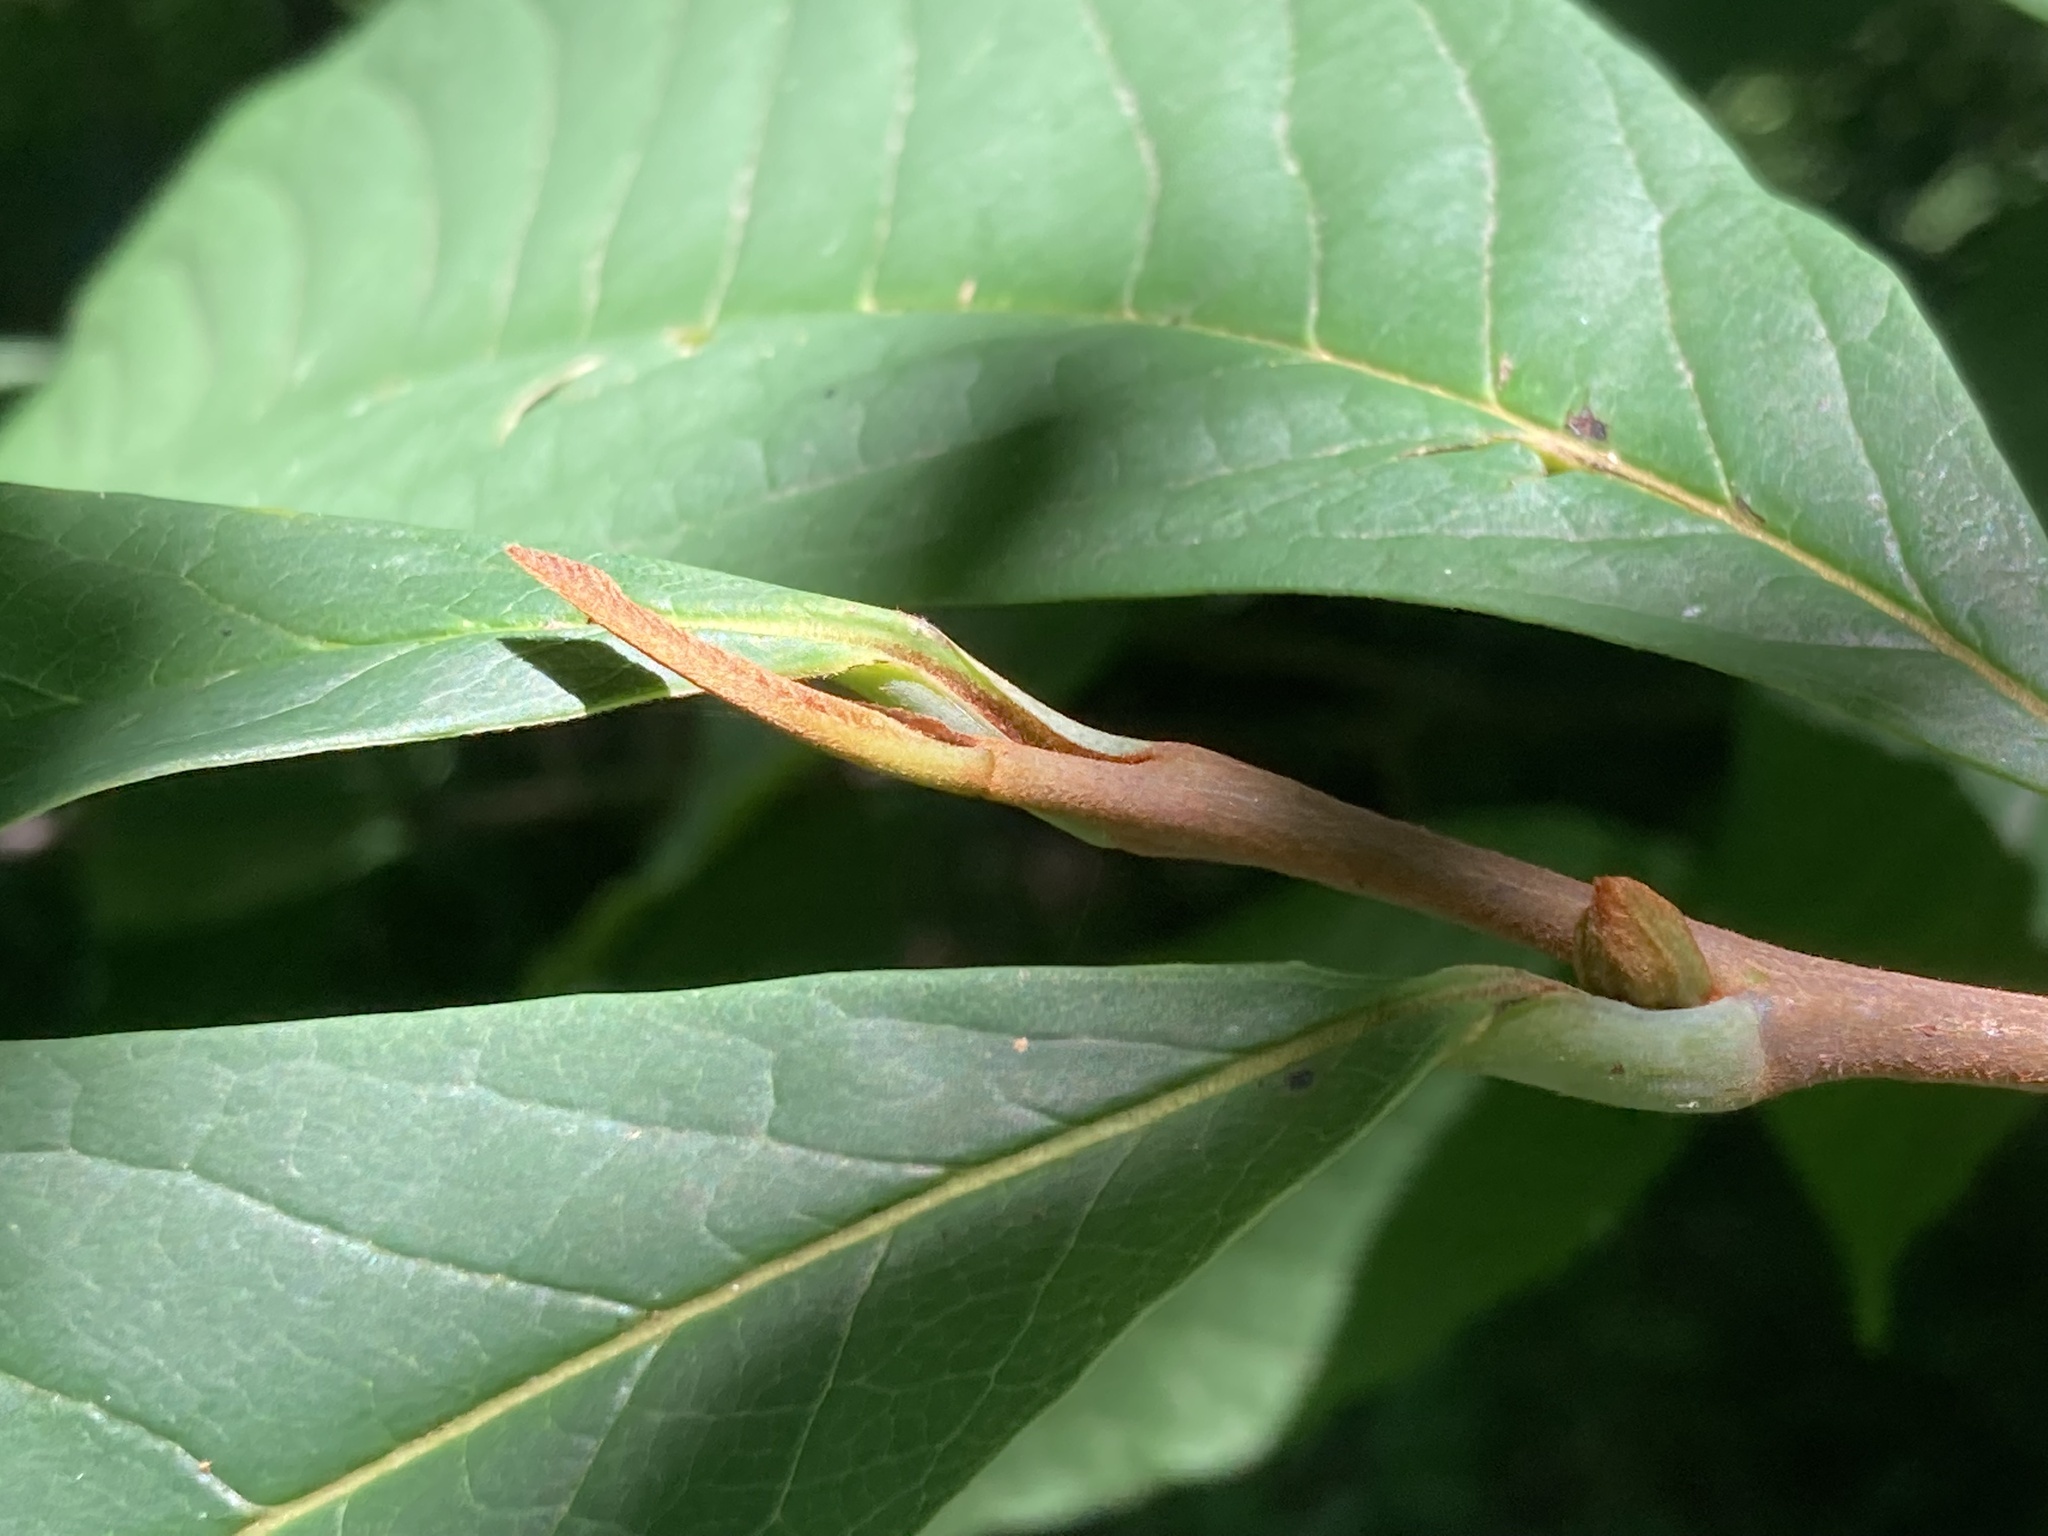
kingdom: Plantae
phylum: Tracheophyta
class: Magnoliopsida
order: Magnoliales
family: Annonaceae
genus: Asimina
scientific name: Asimina triloba
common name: Dog-banana
